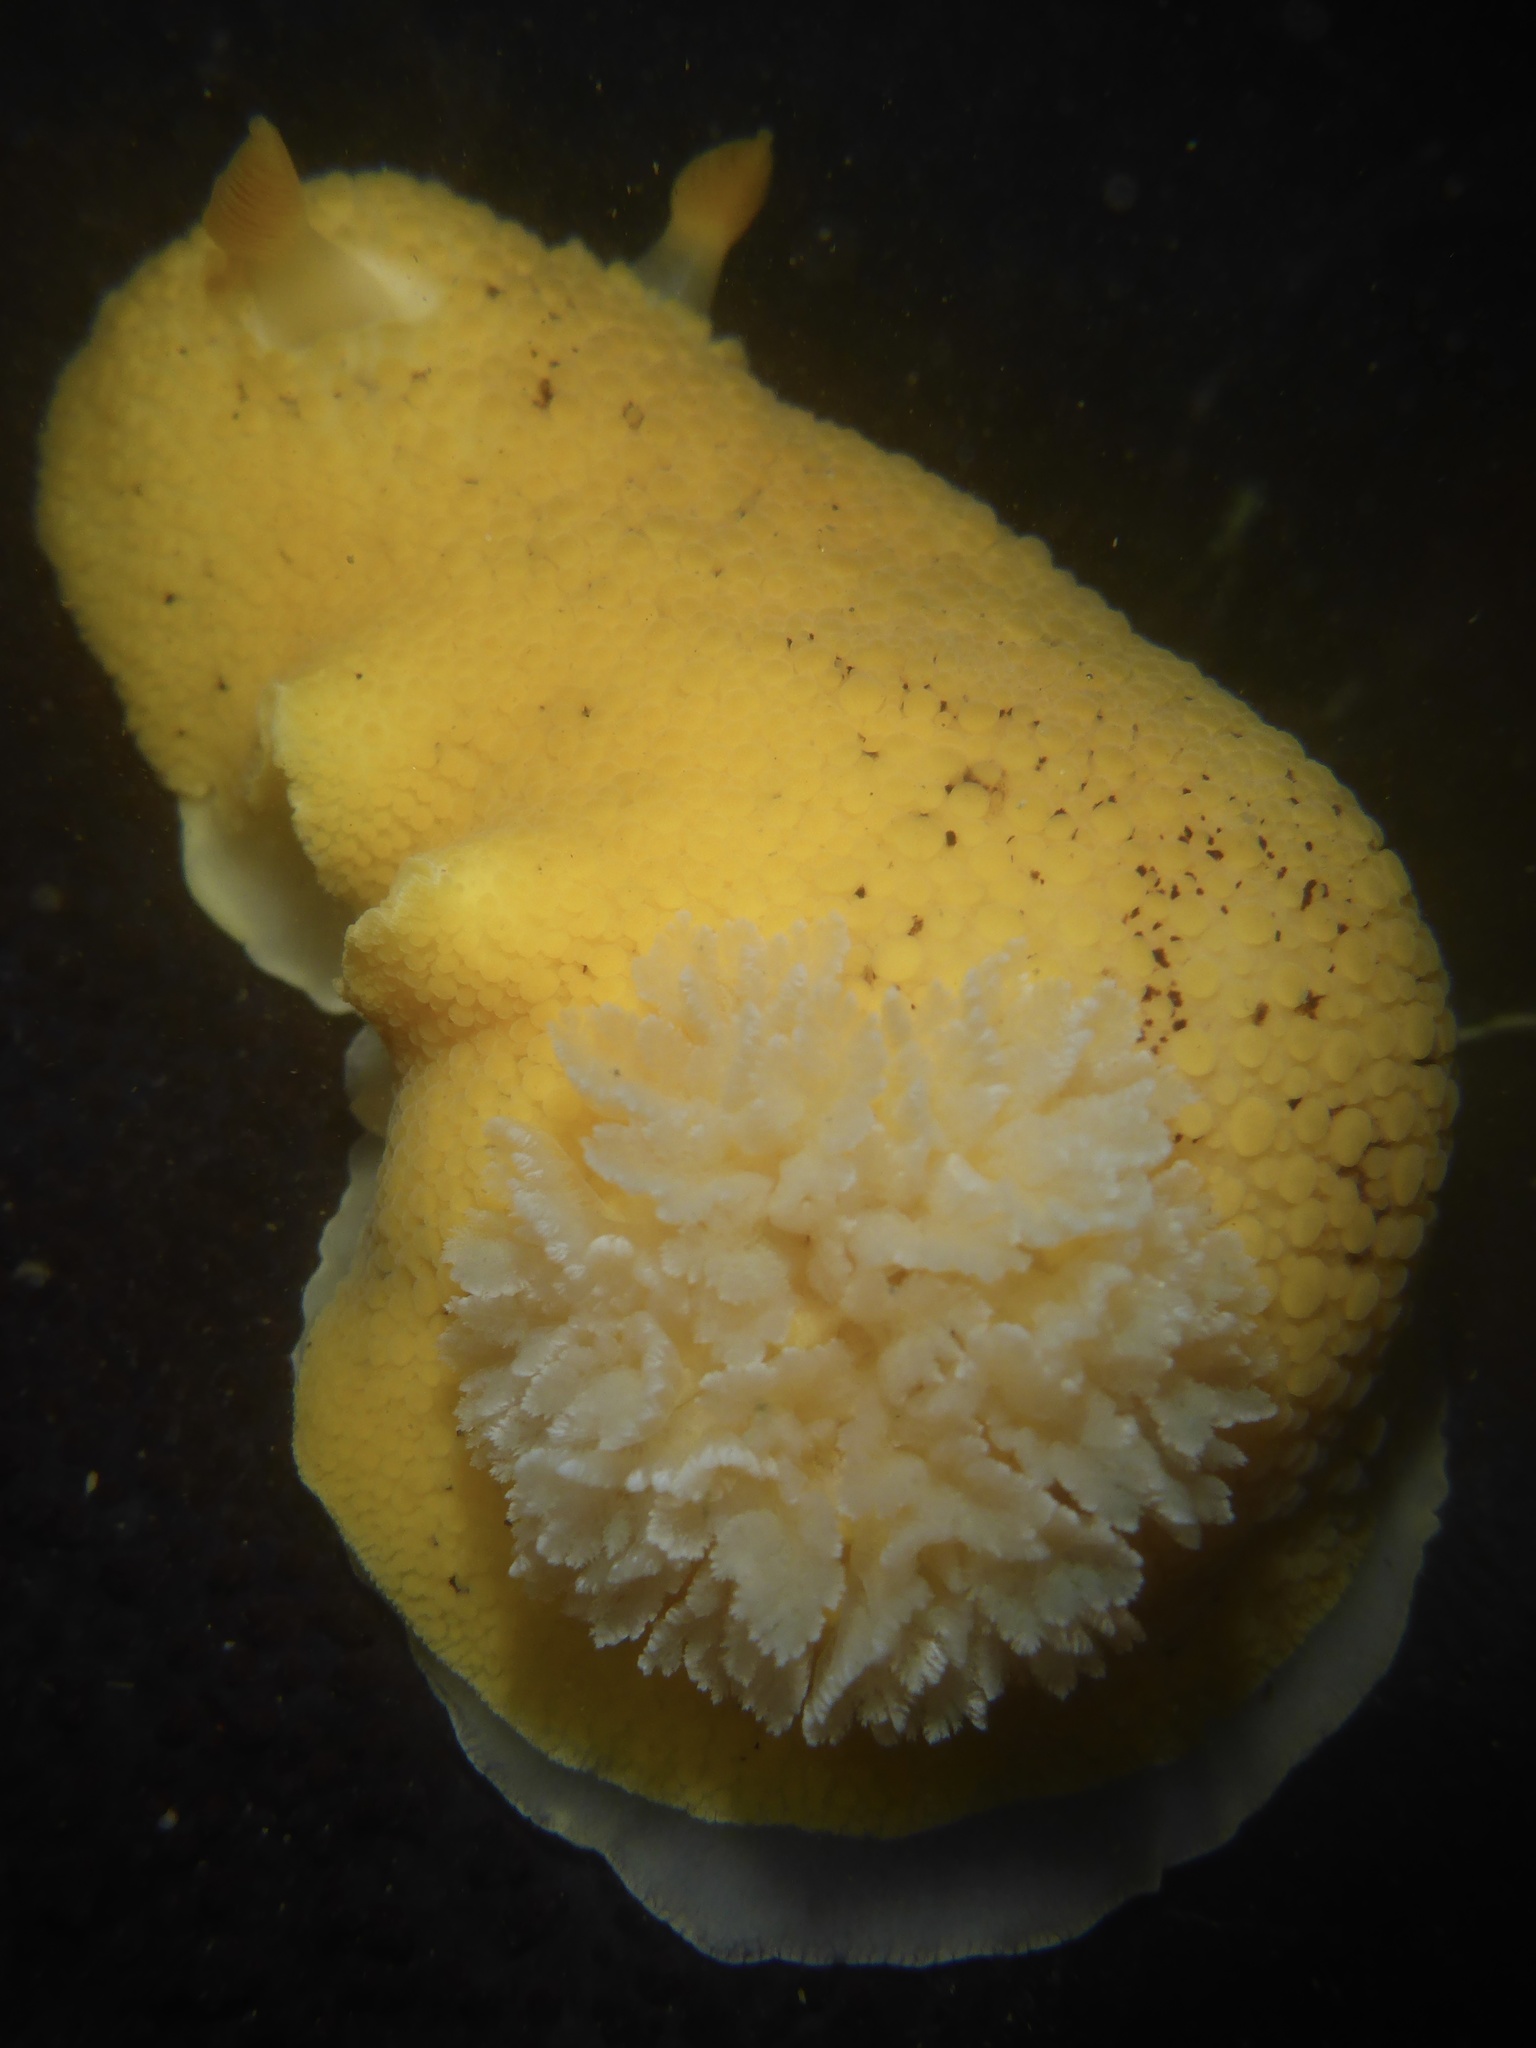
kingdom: Animalia
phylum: Mollusca
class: Gastropoda
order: Nudibranchia
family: Discodorididae
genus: Peltodoris
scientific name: Peltodoris nobilis
